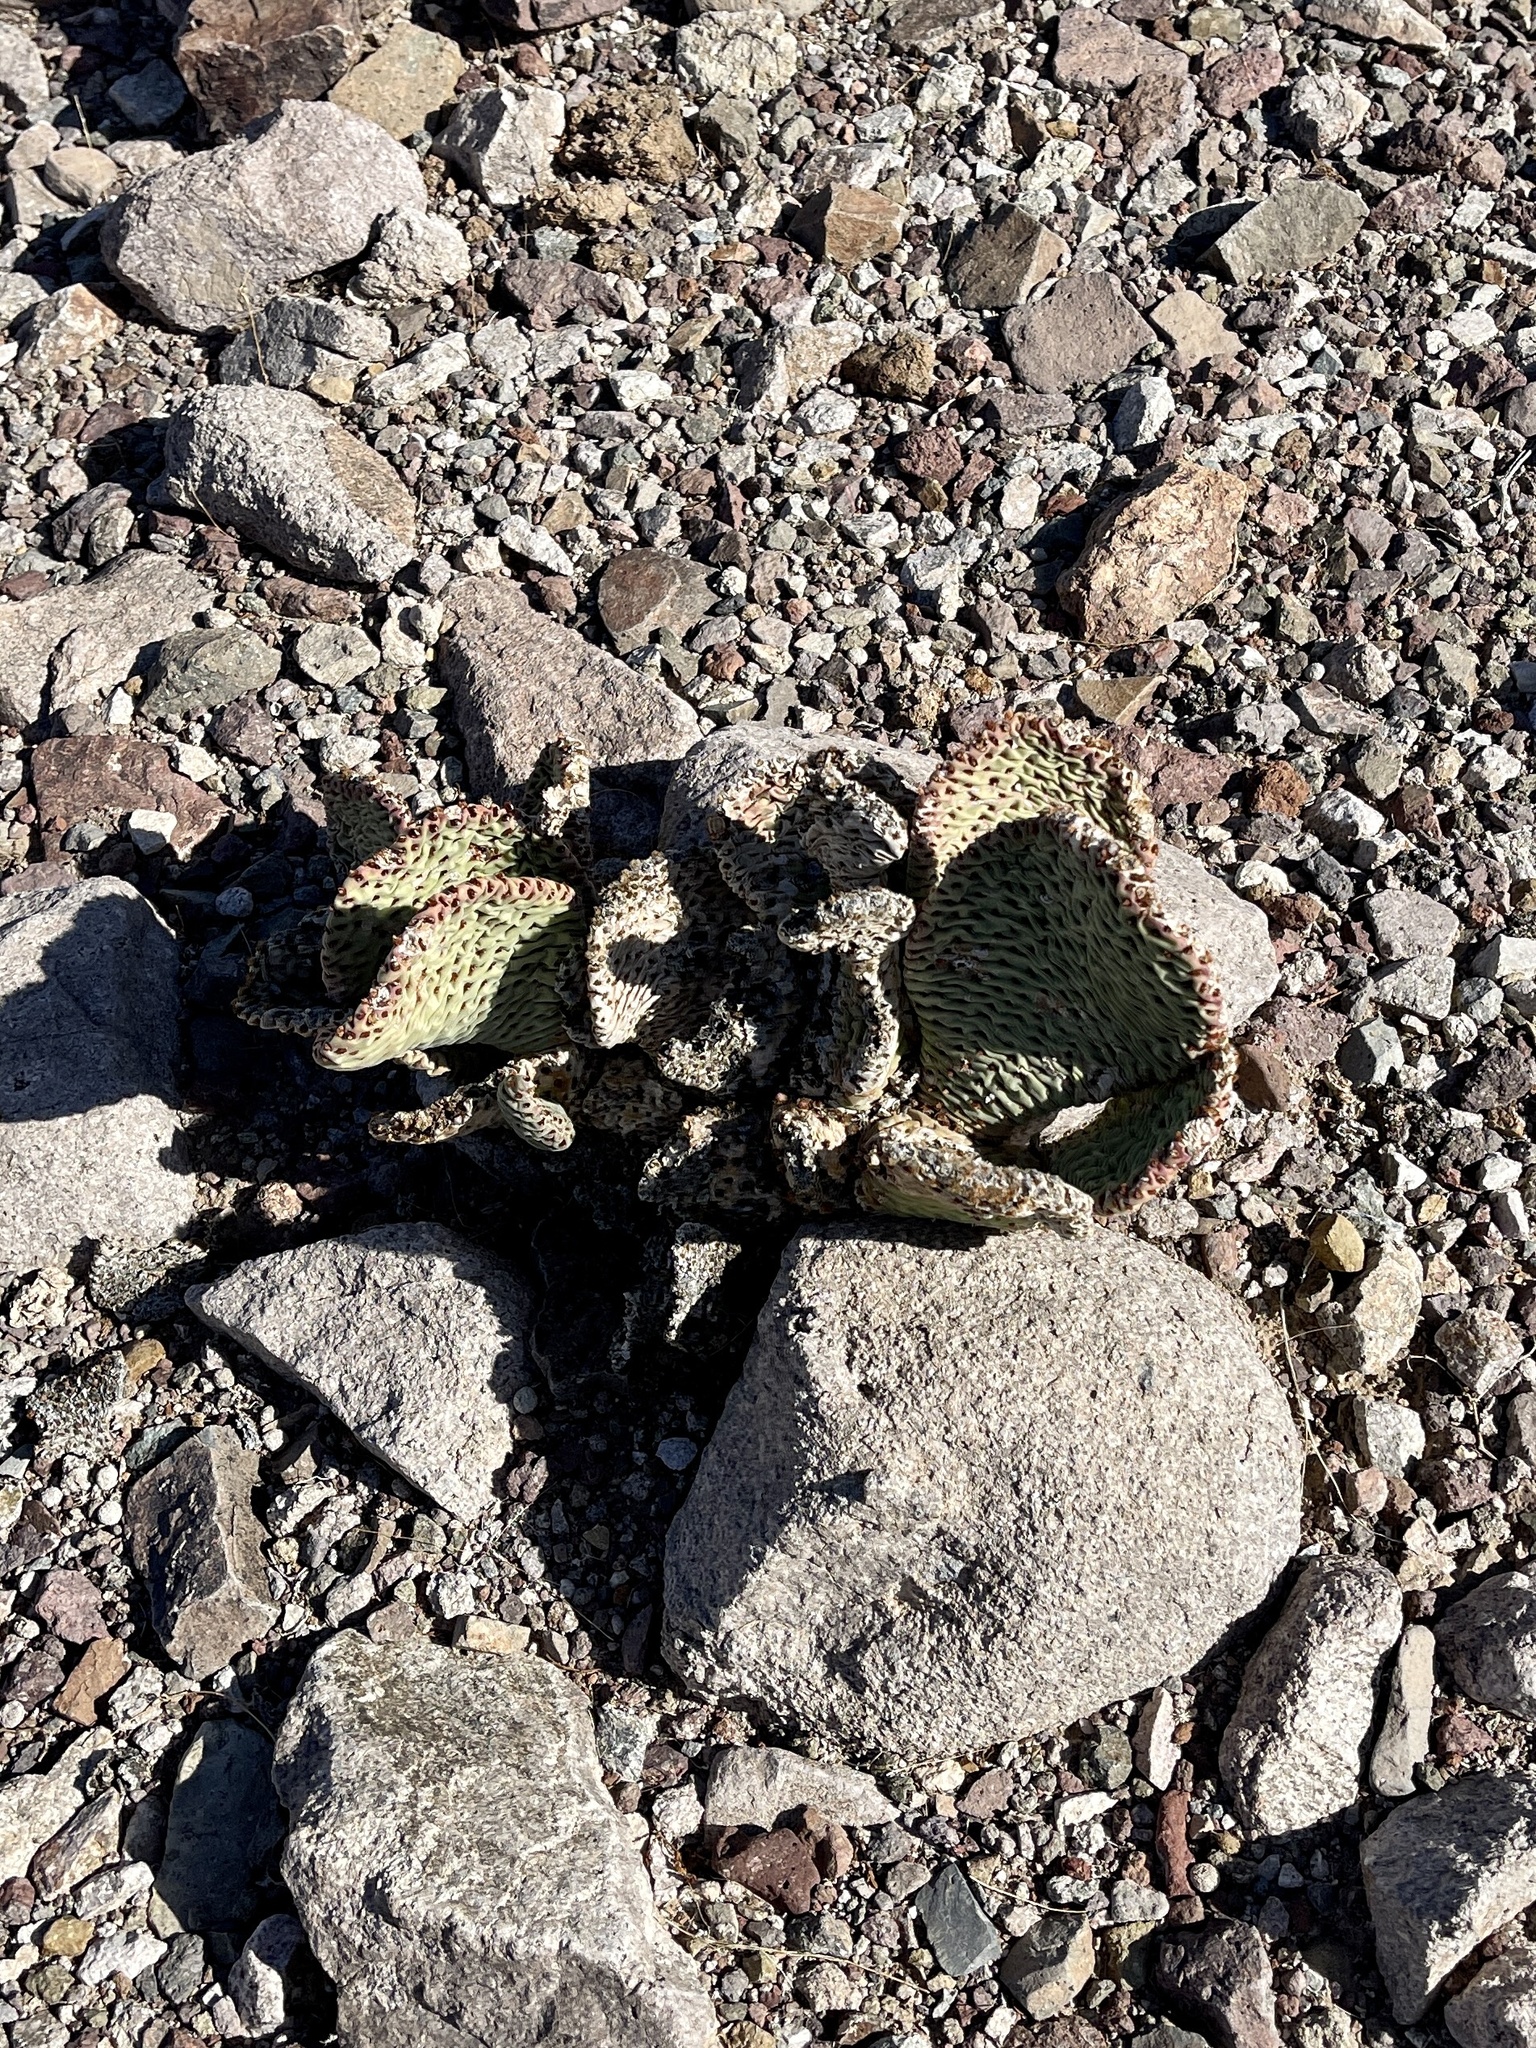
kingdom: Plantae
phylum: Tracheophyta
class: Magnoliopsida
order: Caryophyllales
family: Cactaceae
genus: Opuntia
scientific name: Opuntia basilaris
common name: Beavertail prickly-pear
